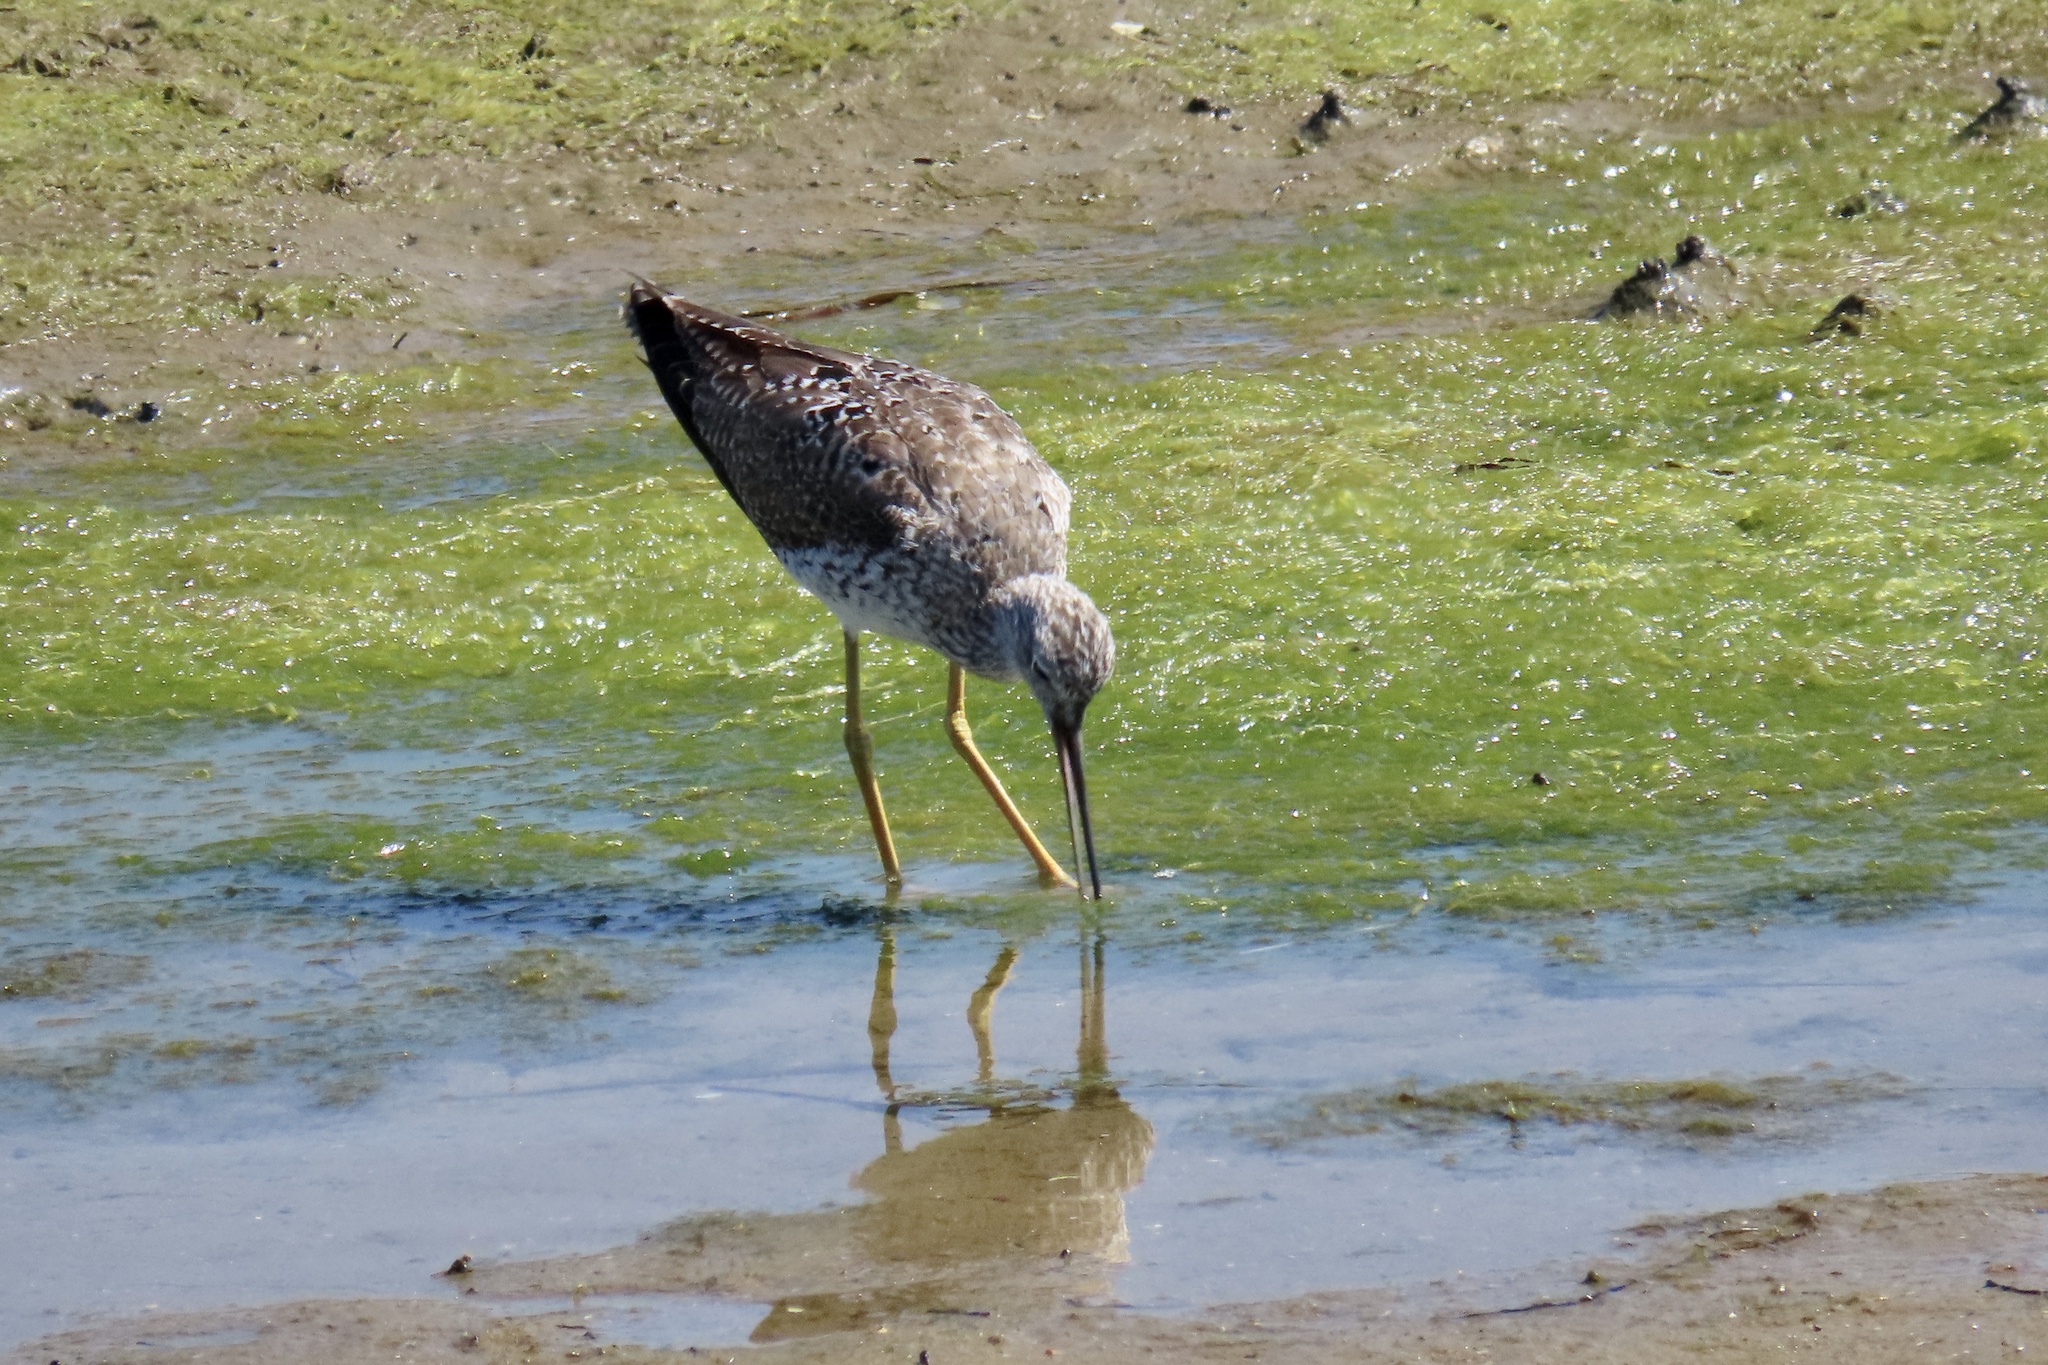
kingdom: Animalia
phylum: Chordata
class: Aves
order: Charadriiformes
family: Scolopacidae
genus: Tringa
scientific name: Tringa melanoleuca
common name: Greater yellowlegs
